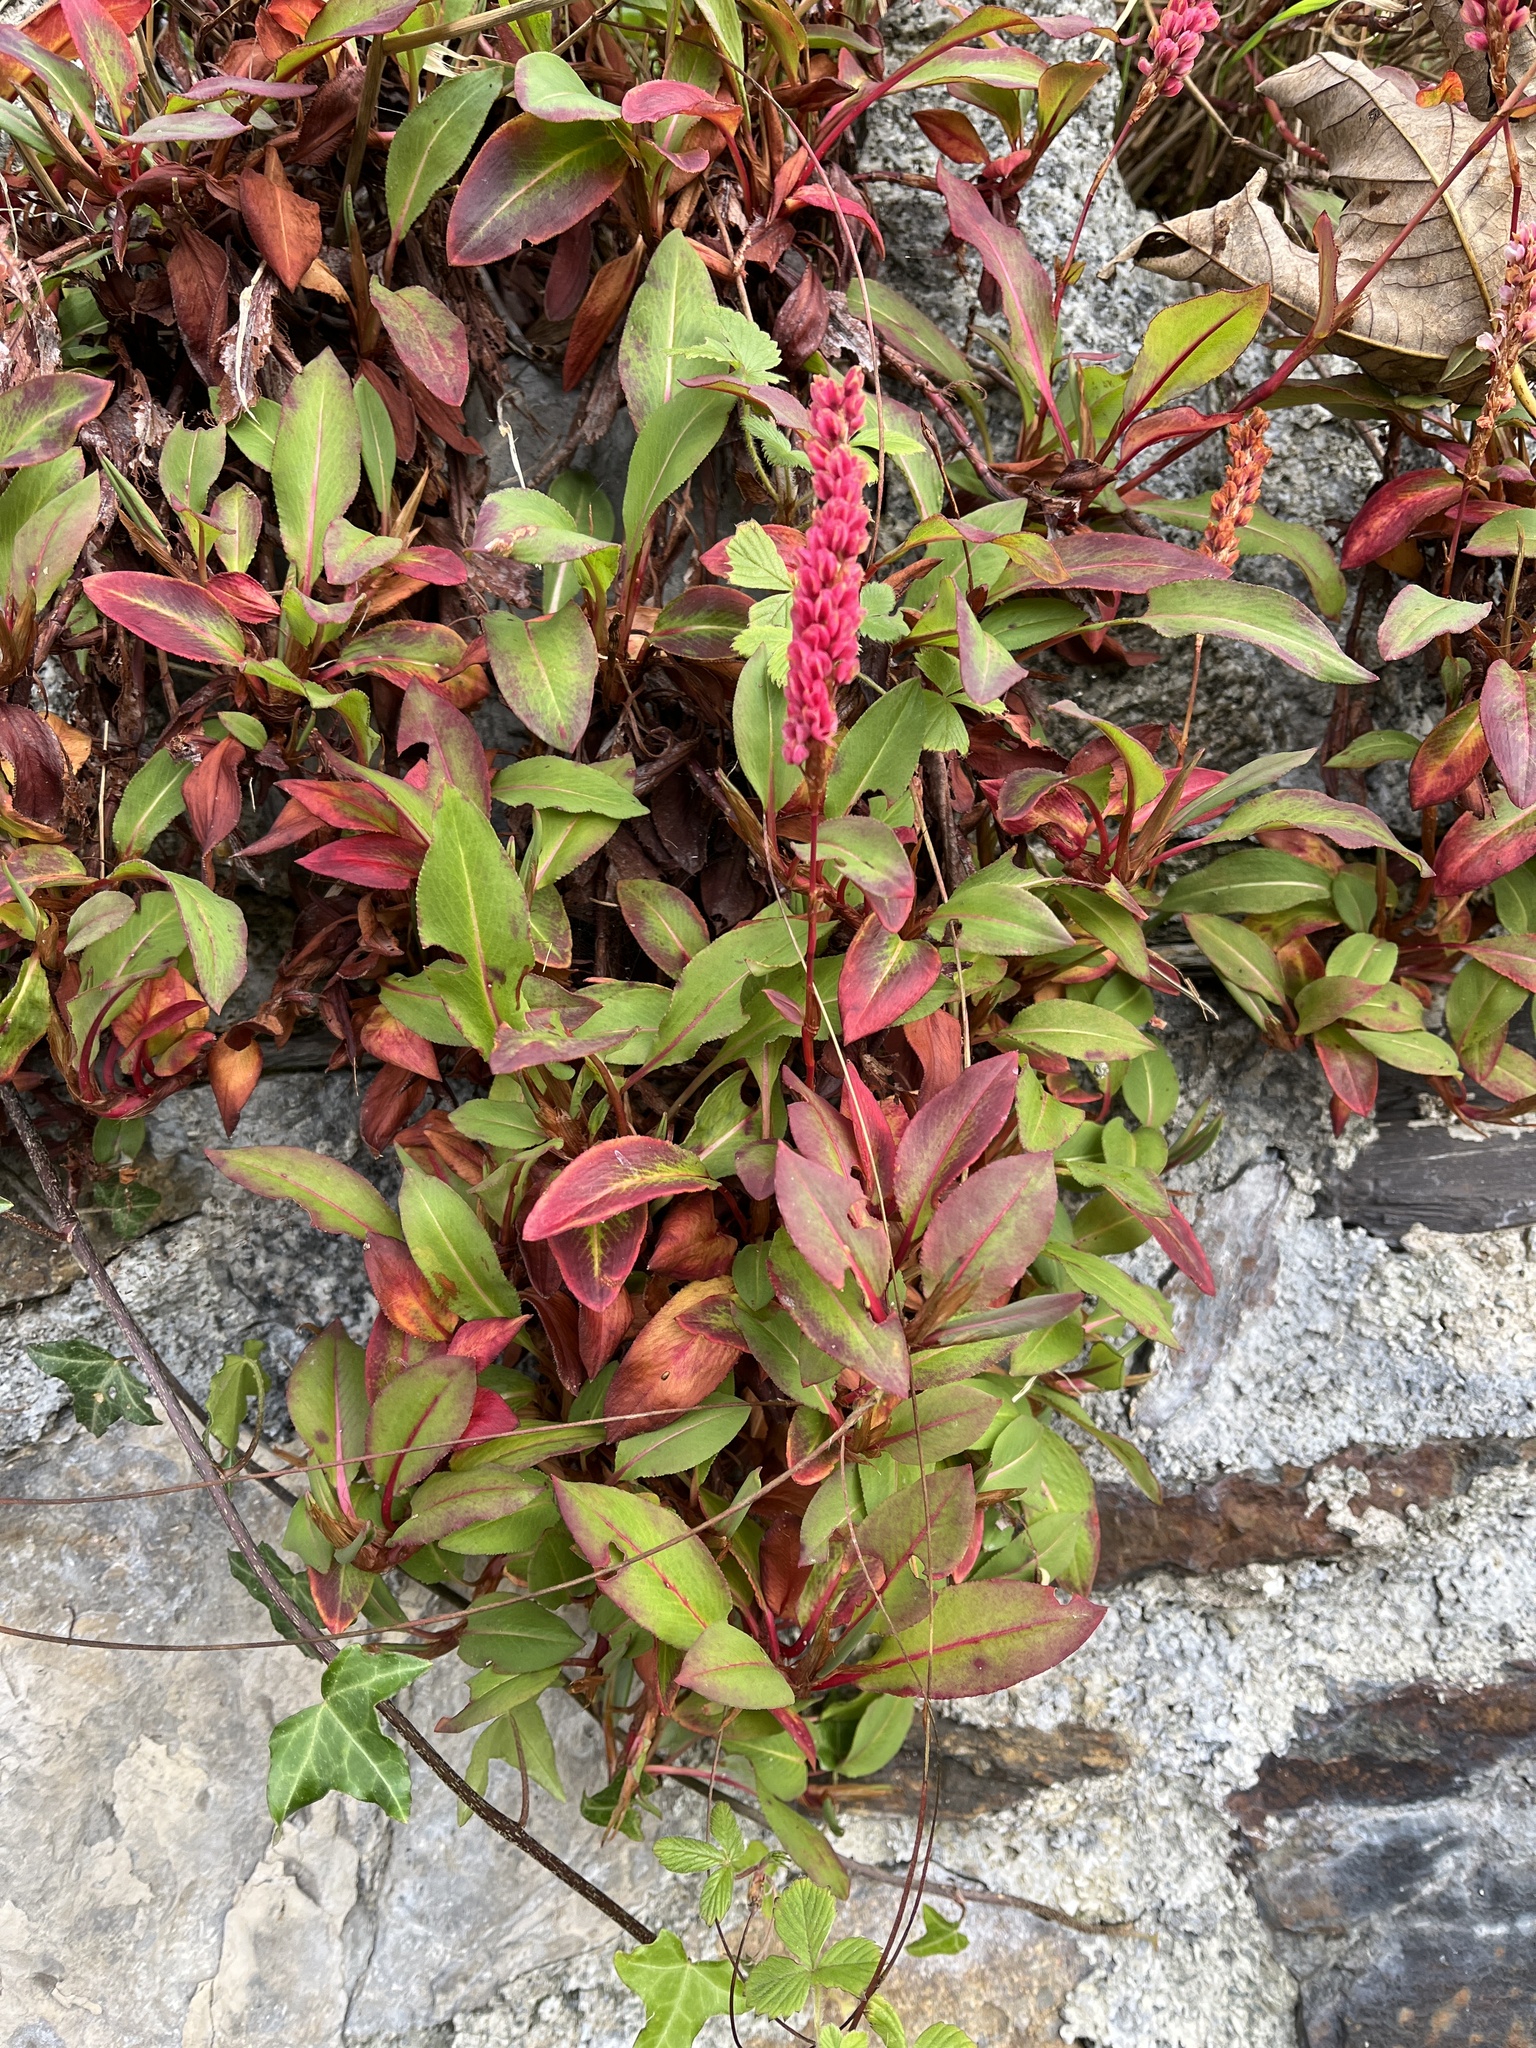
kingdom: Plantae
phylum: Tracheophyta
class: Magnoliopsida
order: Caryophyllales
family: Polygonaceae
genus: Bistorta
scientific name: Bistorta affinis
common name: Himalayan fleeceflower
